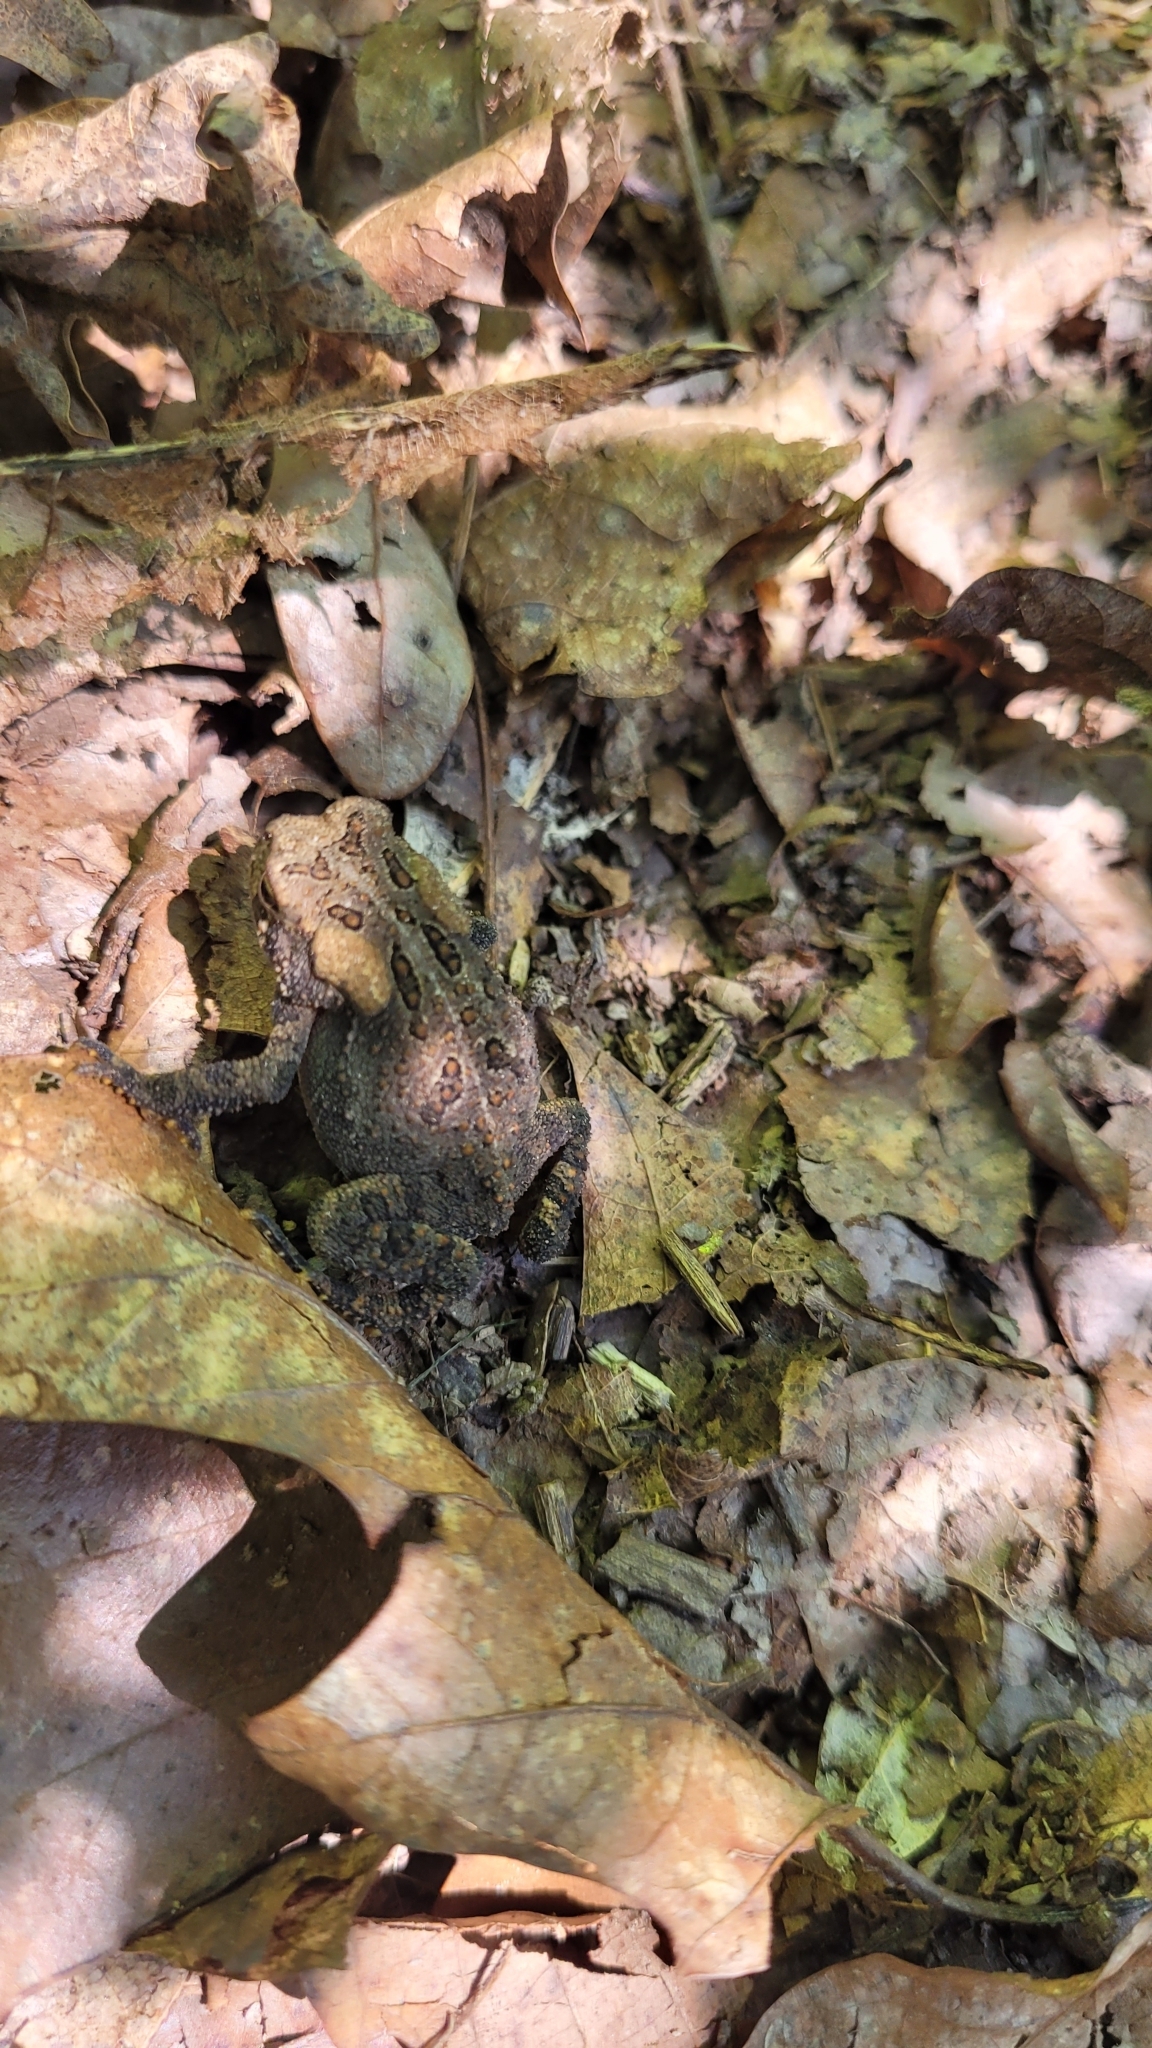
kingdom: Animalia
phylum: Chordata
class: Amphibia
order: Anura
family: Bufonidae
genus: Anaxyrus
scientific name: Anaxyrus americanus
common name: American toad
